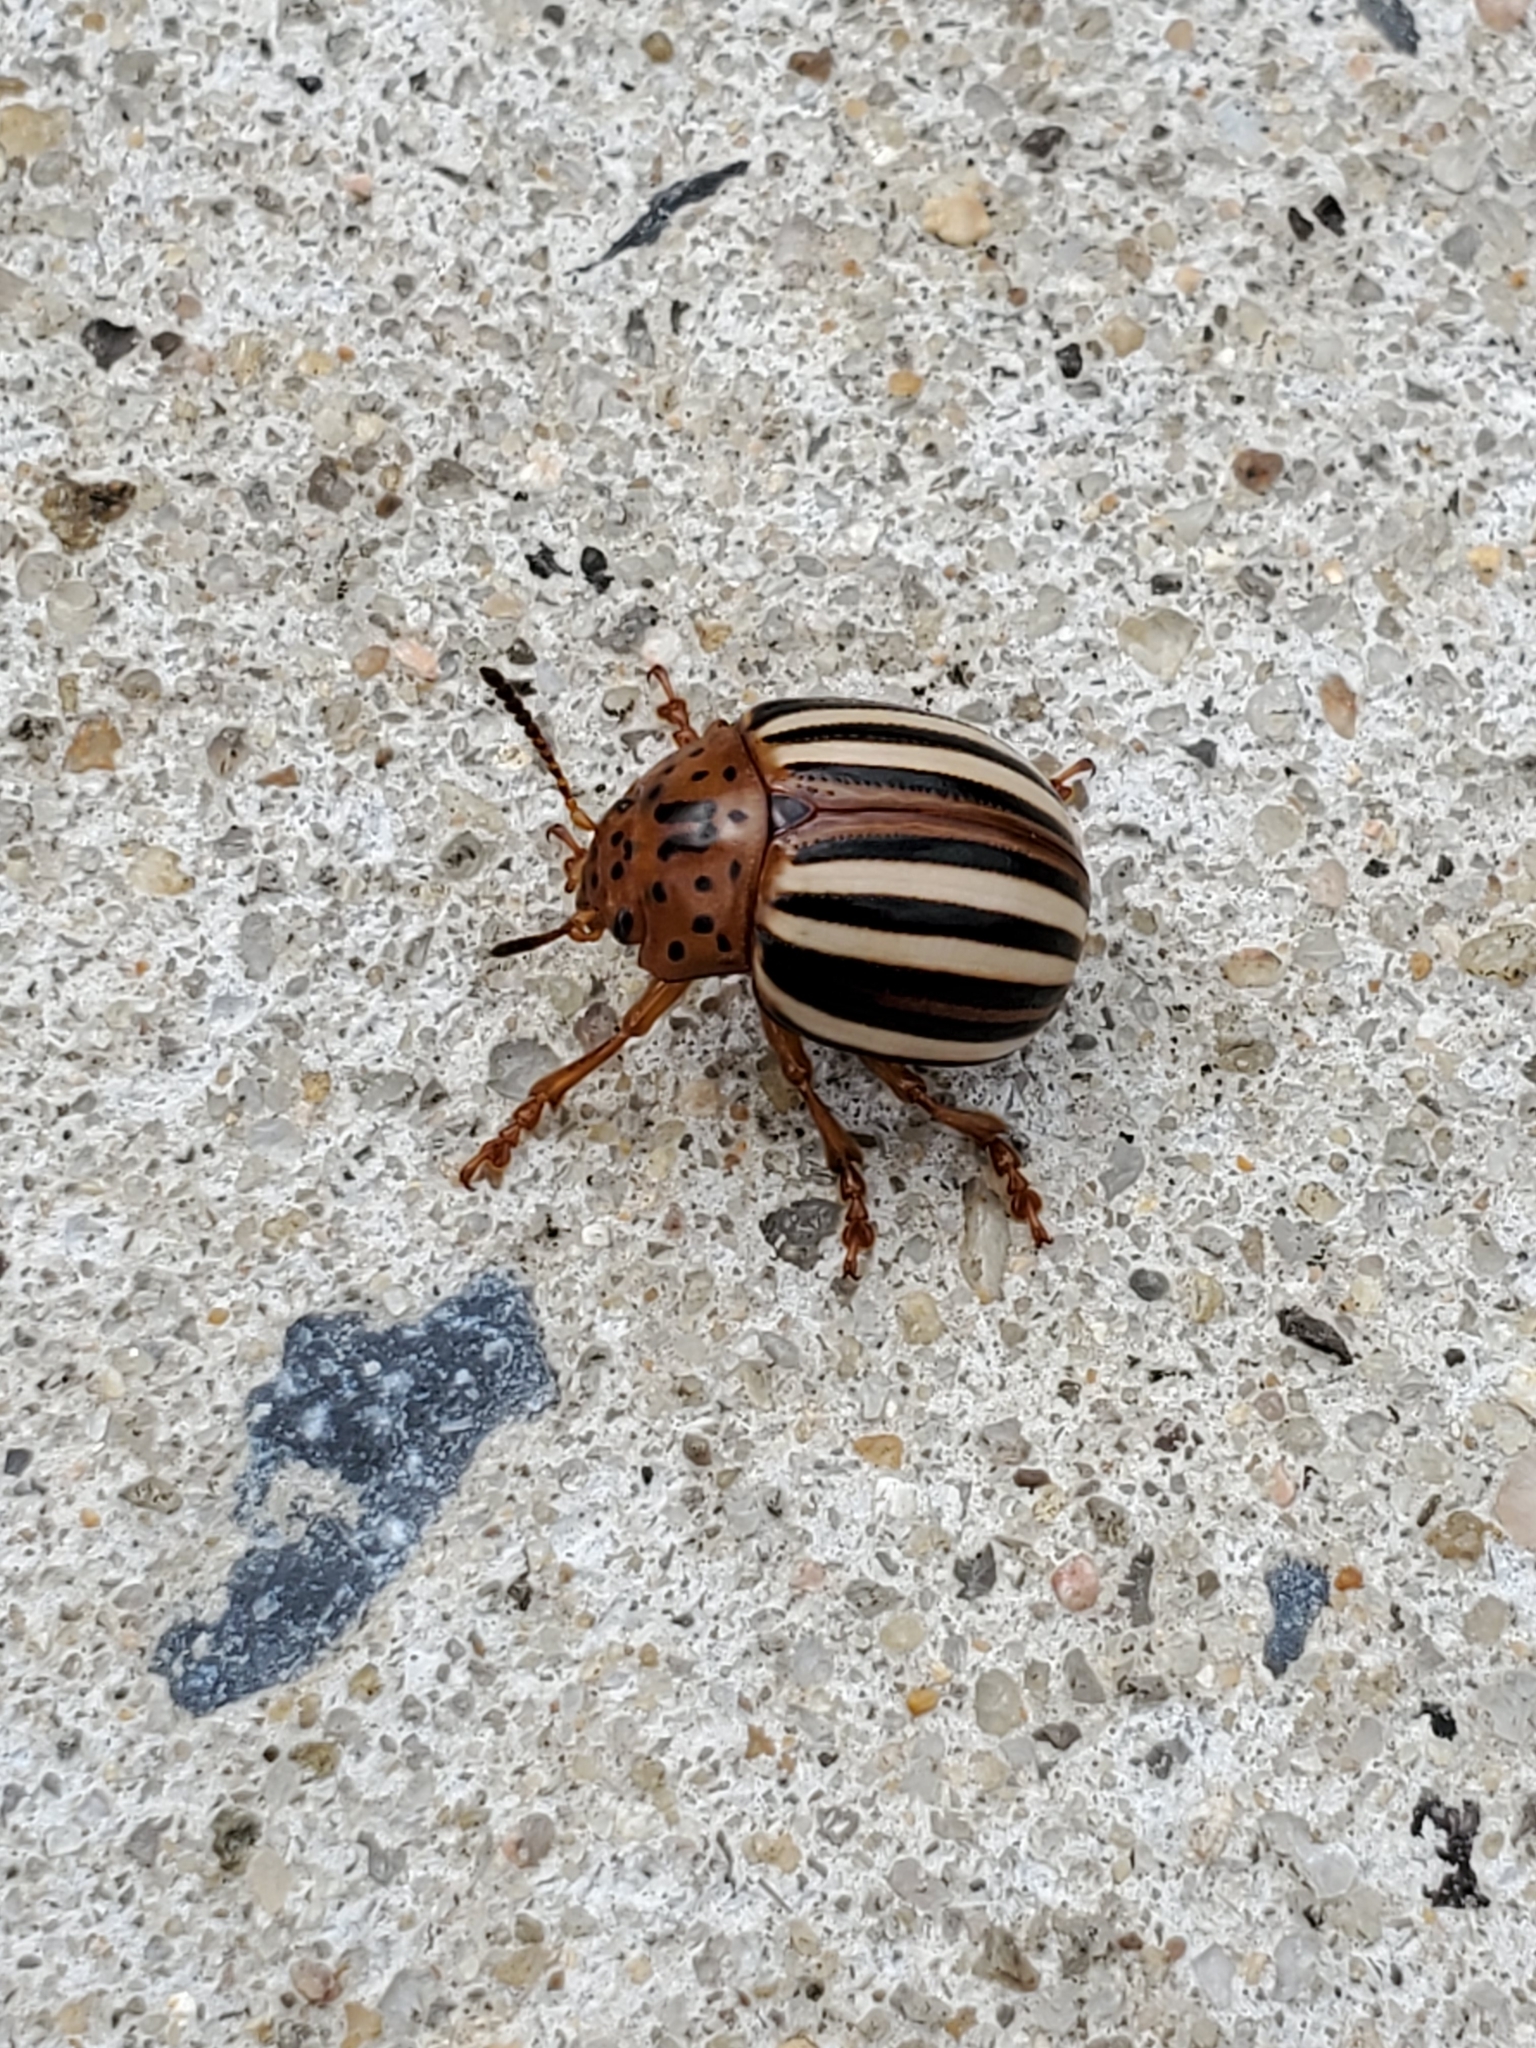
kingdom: Animalia
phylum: Arthropoda
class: Insecta
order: Coleoptera
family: Chrysomelidae
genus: Leptinotarsa
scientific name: Leptinotarsa juncta
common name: False potato beetle
